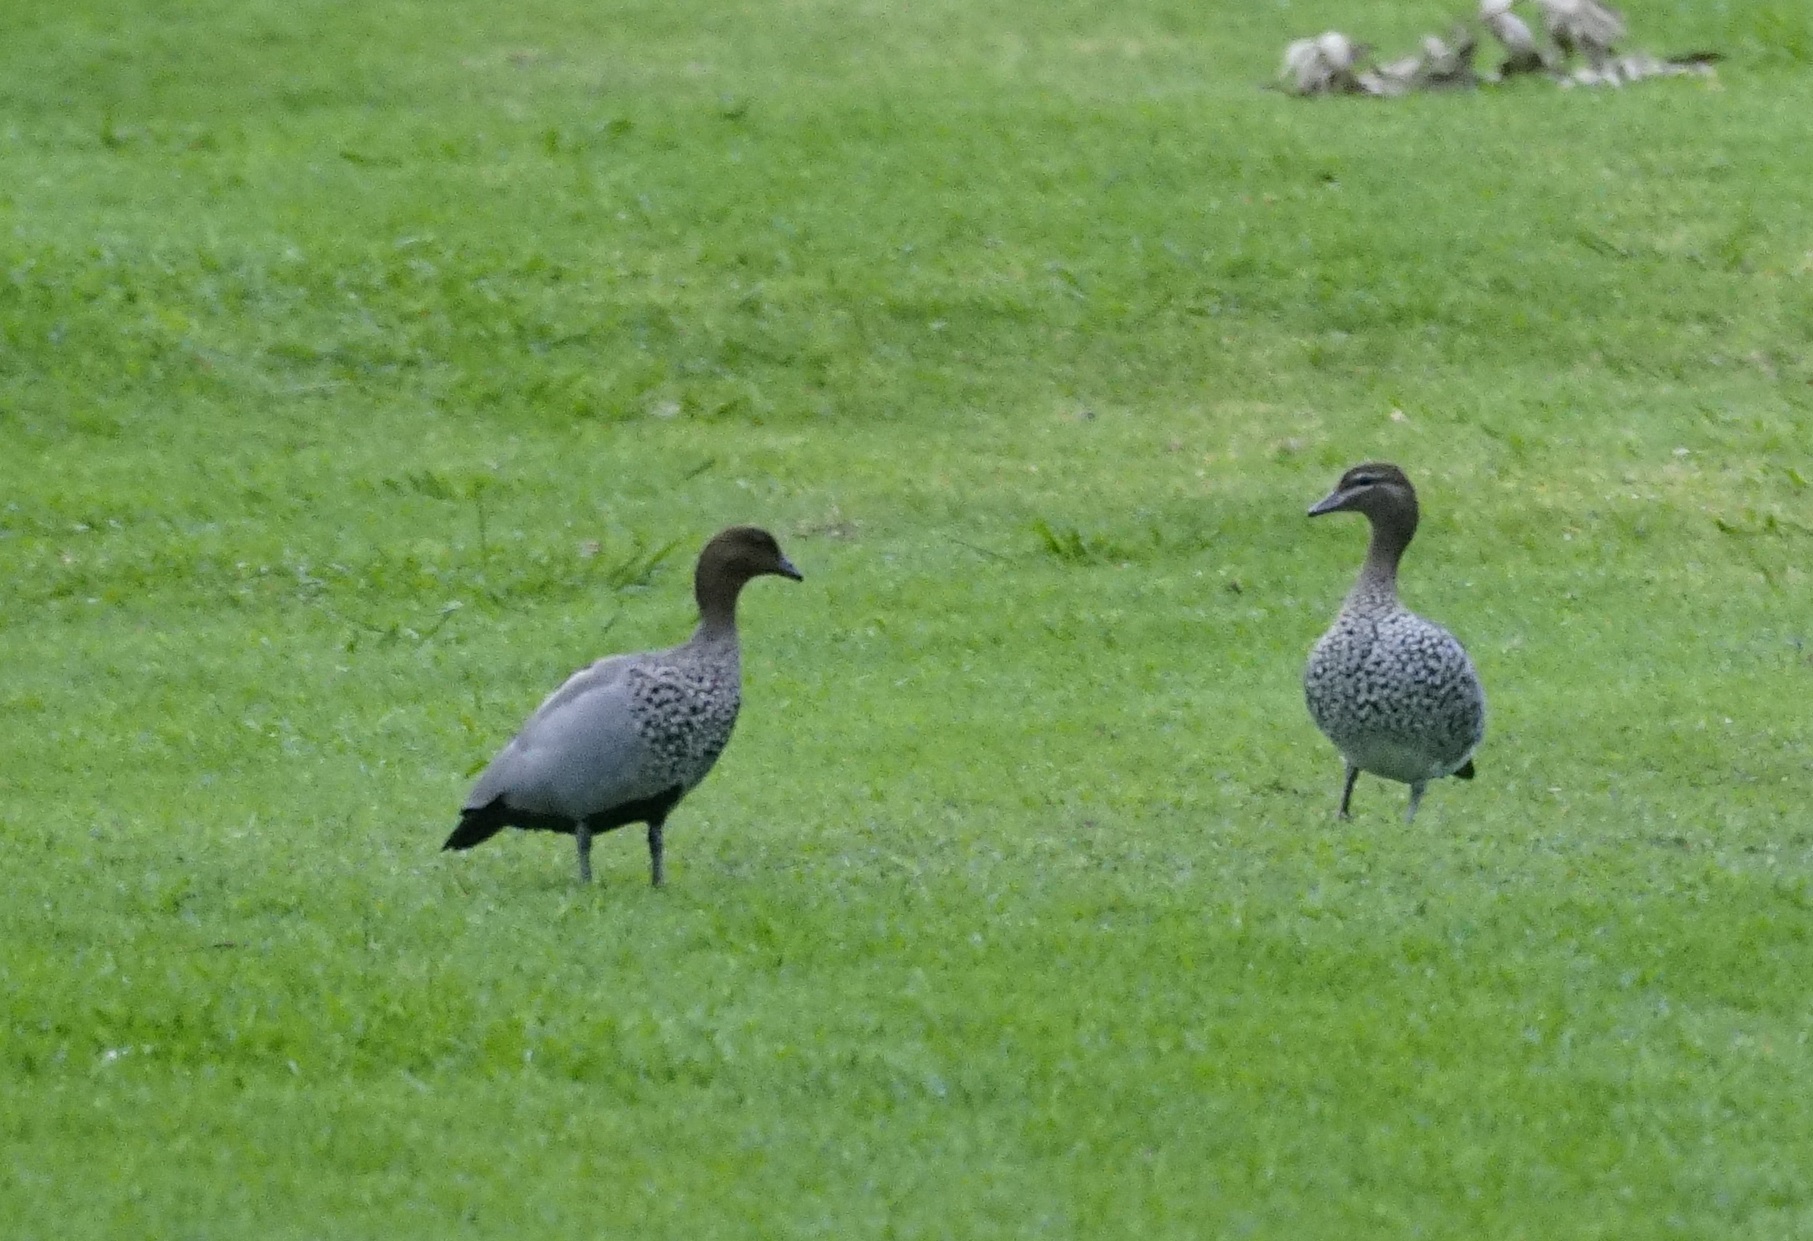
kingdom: Animalia
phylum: Chordata
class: Aves
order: Anseriformes
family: Anatidae
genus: Chenonetta
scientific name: Chenonetta jubata
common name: Maned duck
